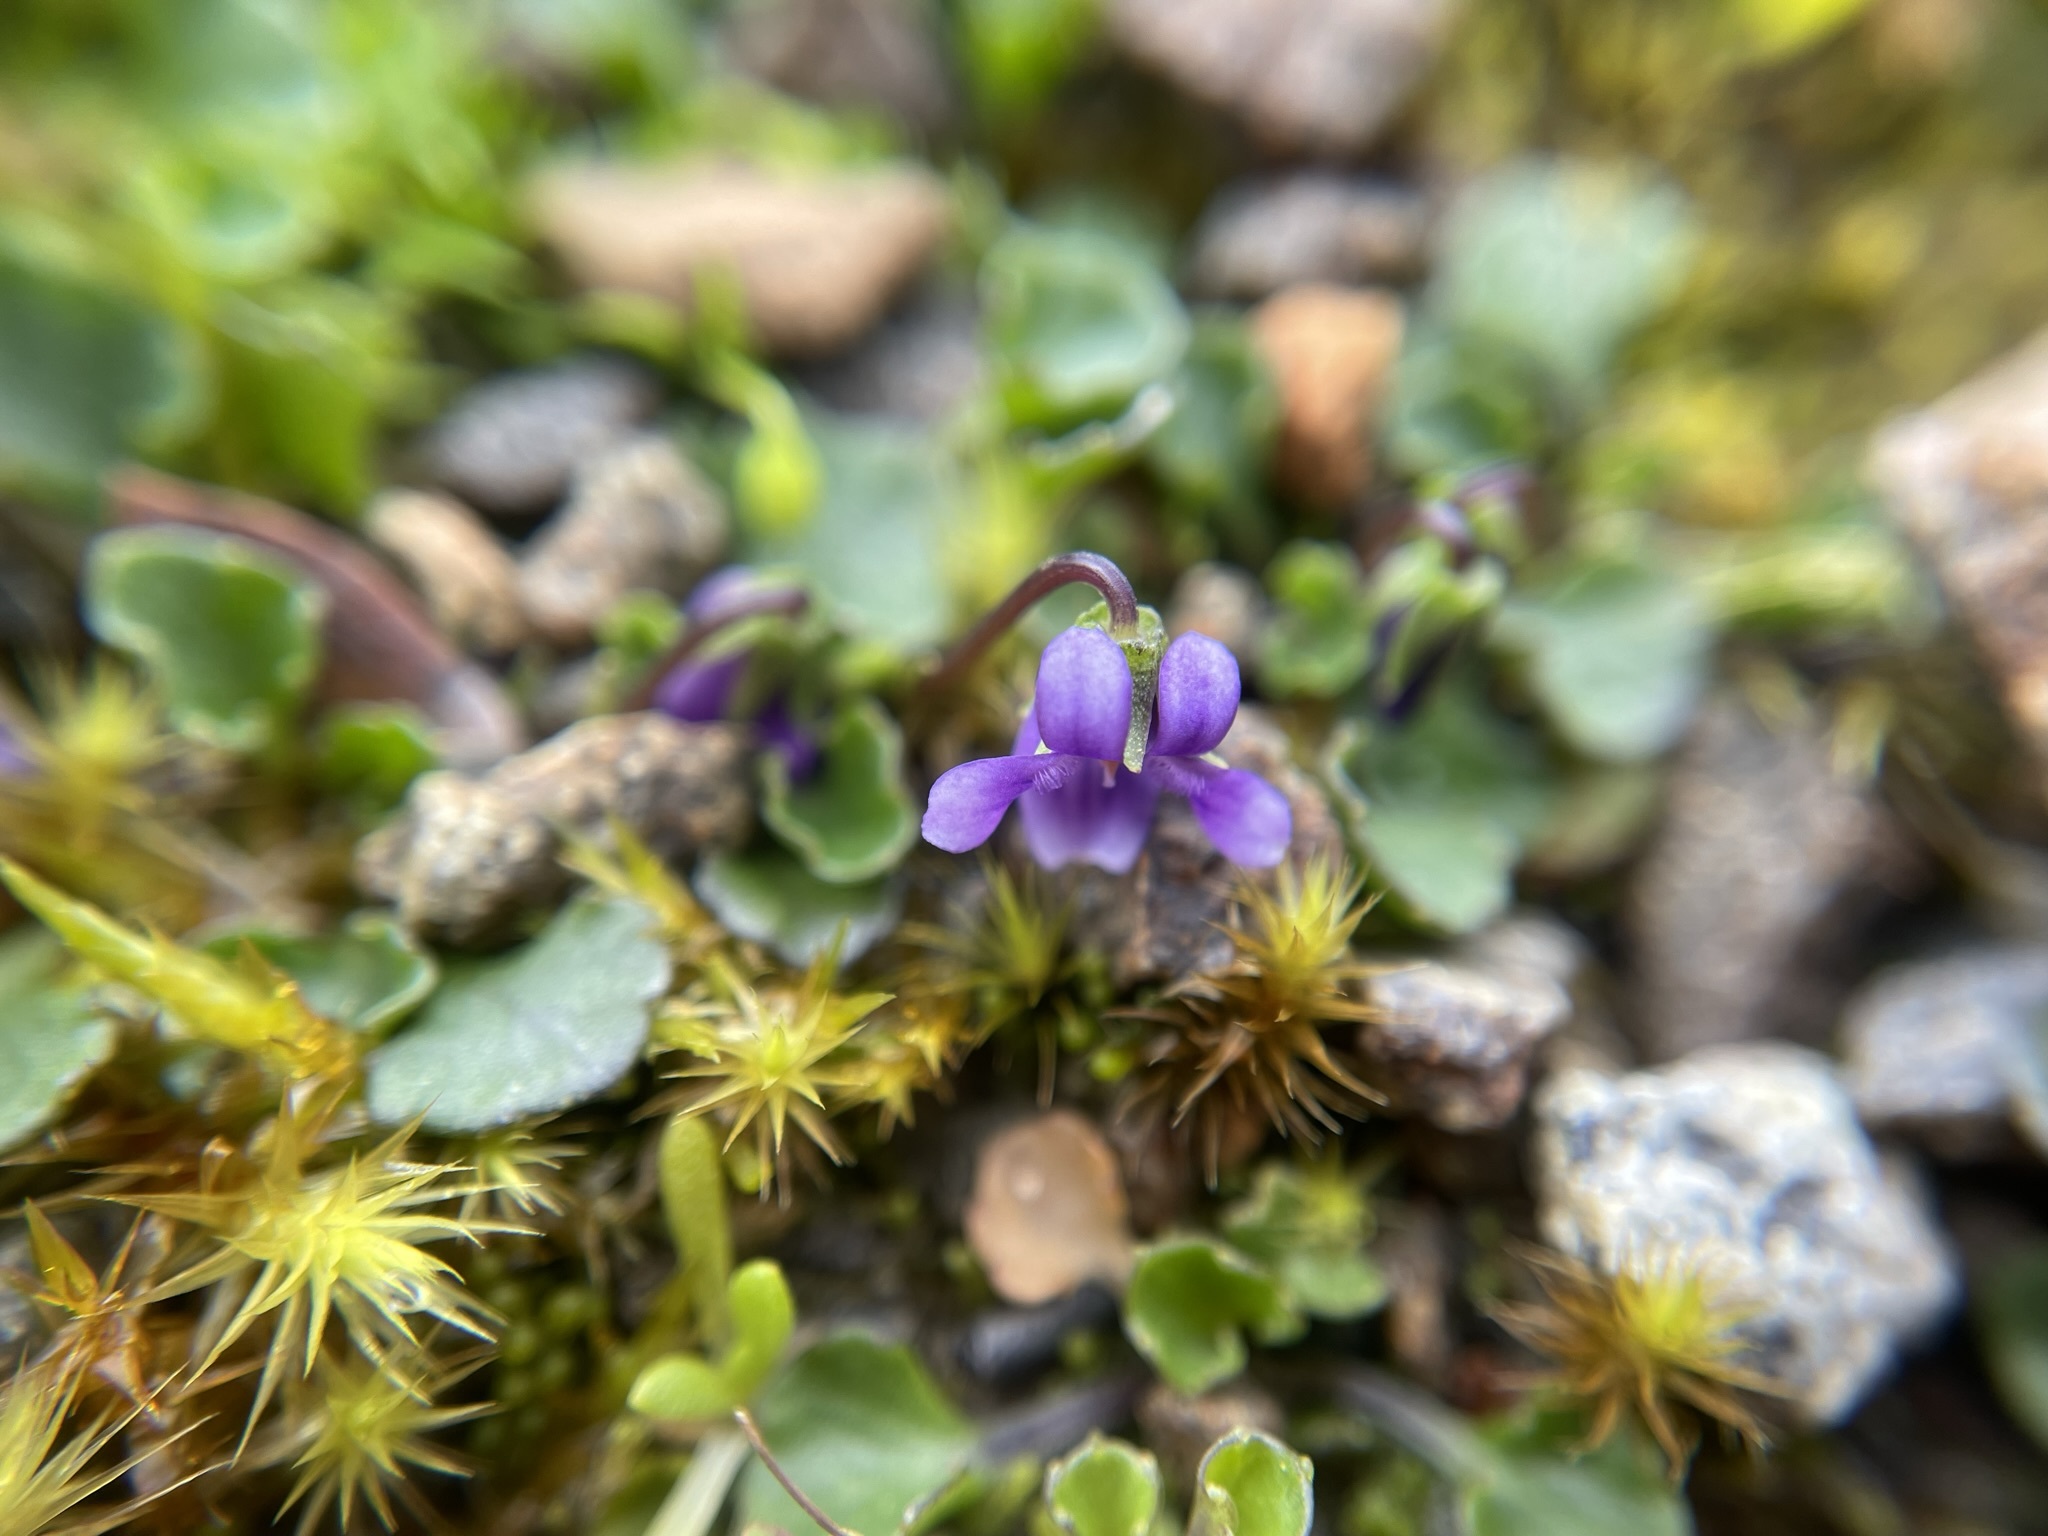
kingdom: Plantae
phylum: Tracheophyta
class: Magnoliopsida
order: Malpighiales
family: Violaceae
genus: Viola
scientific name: Viola fuscoviolacea
